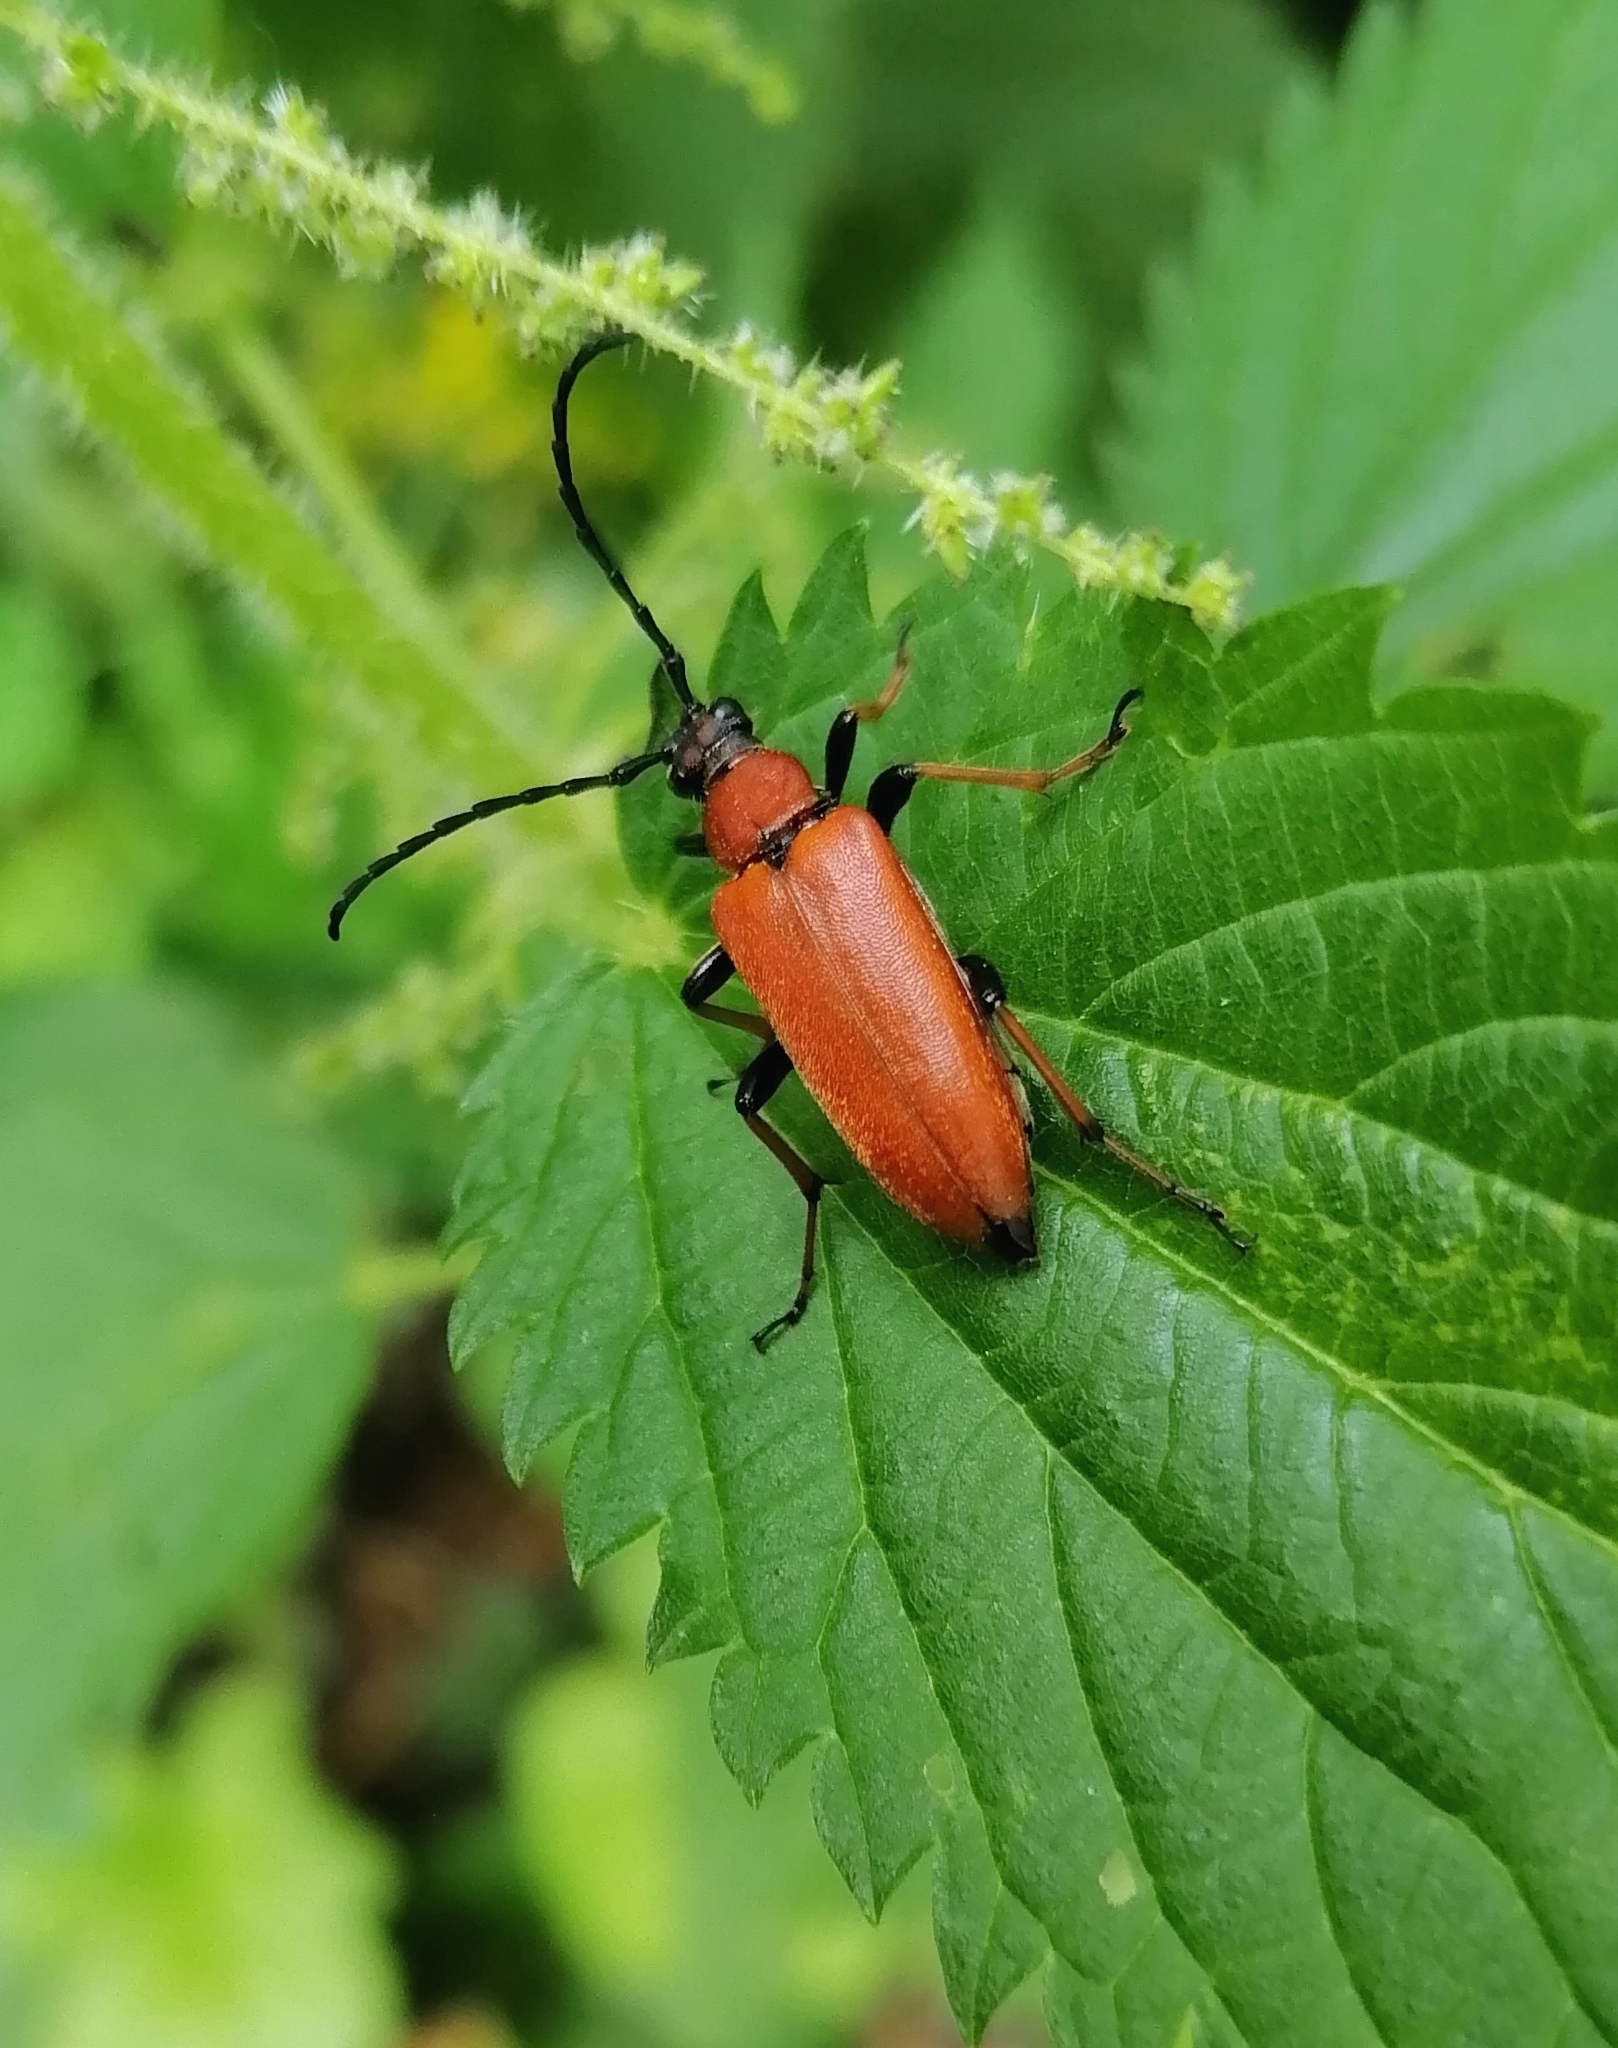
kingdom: Animalia
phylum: Arthropoda
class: Insecta
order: Coleoptera
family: Cerambycidae
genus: Stictoleptura
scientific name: Stictoleptura rubra
